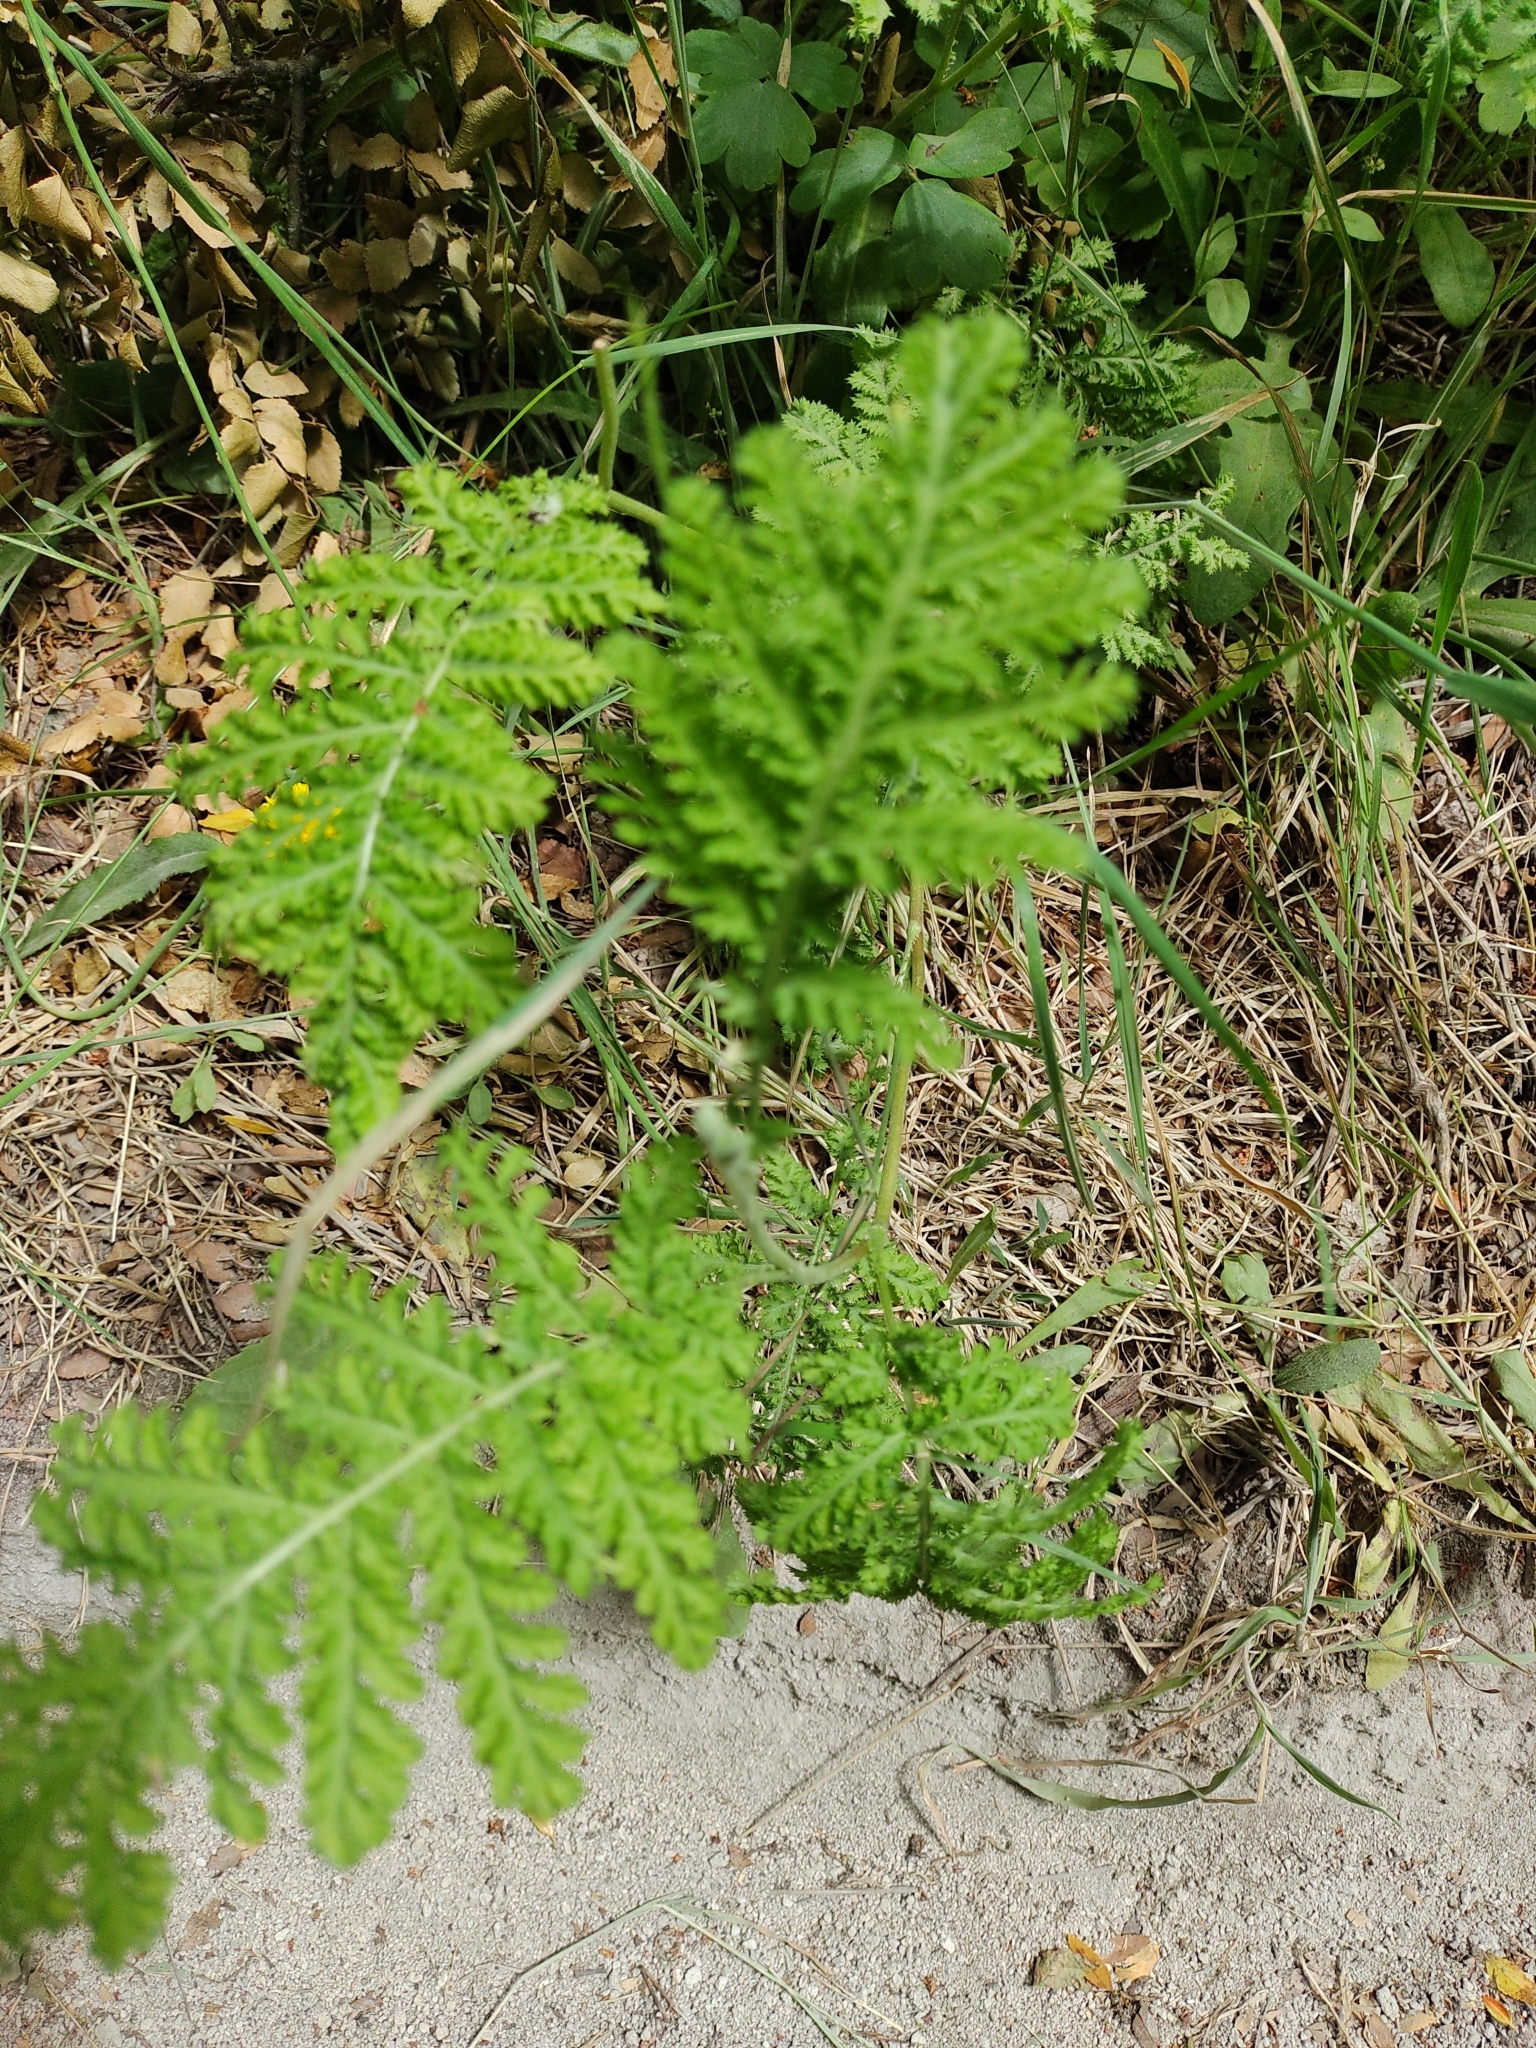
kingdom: Plantae
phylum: Tracheophyta
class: Magnoliopsida
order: Asterales
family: Asteraceae
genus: Tanacetum
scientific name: Tanacetum vulgare
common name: Common tansy
